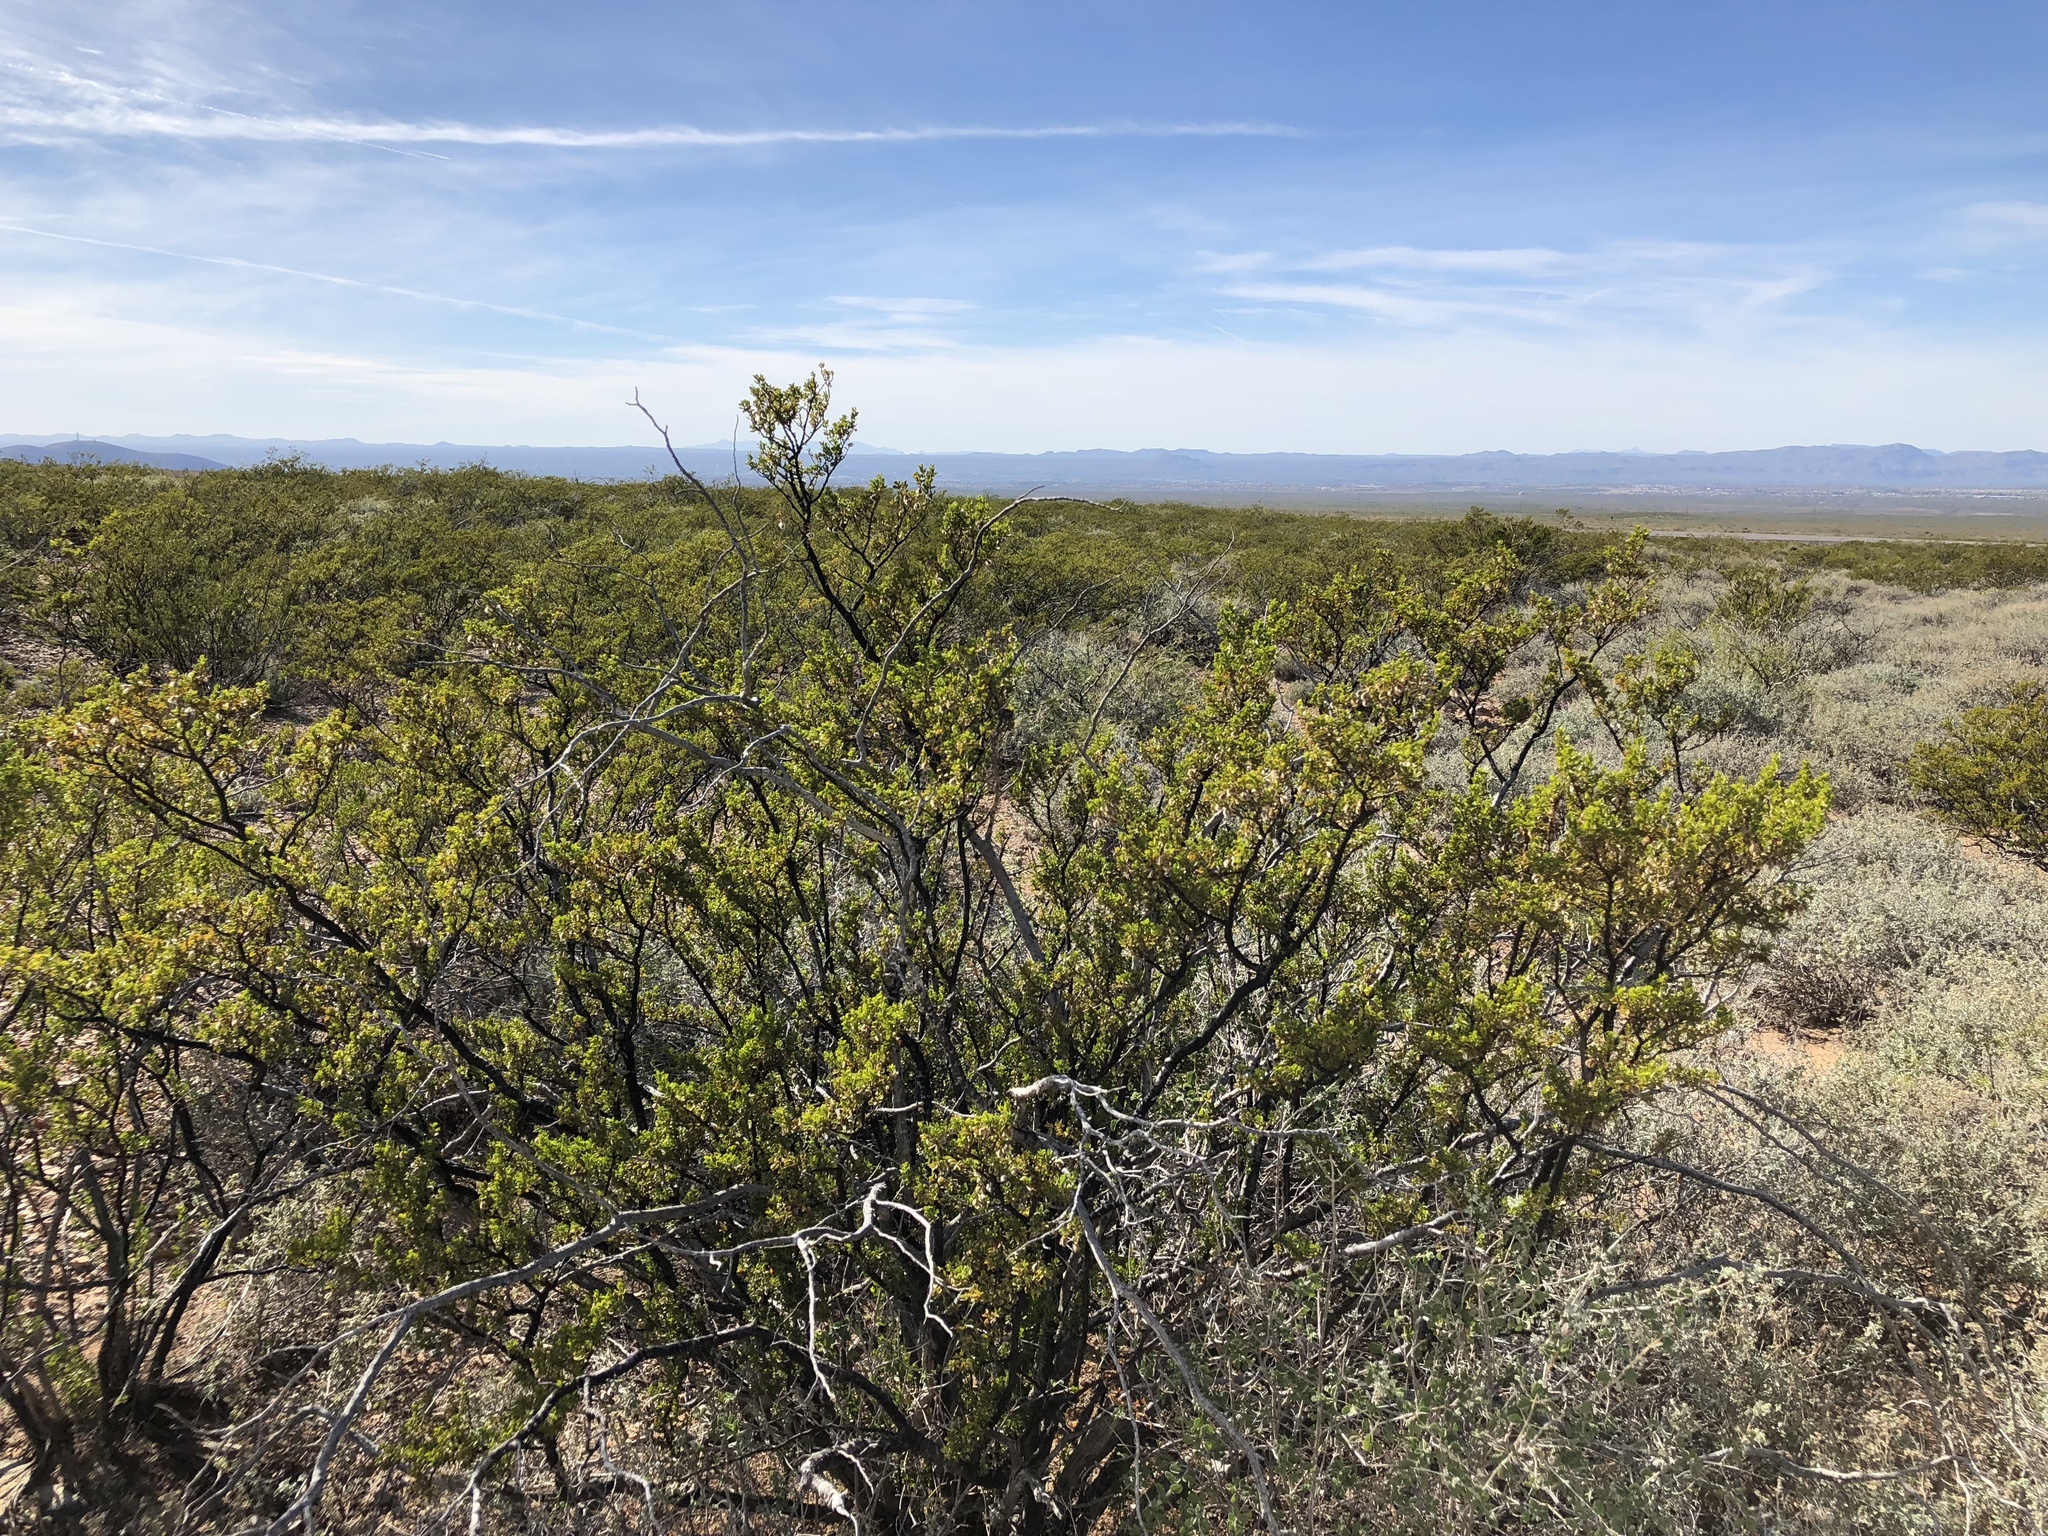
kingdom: Plantae
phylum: Tracheophyta
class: Magnoliopsida
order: Zygophyllales
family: Zygophyllaceae
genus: Larrea
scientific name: Larrea tridentata
